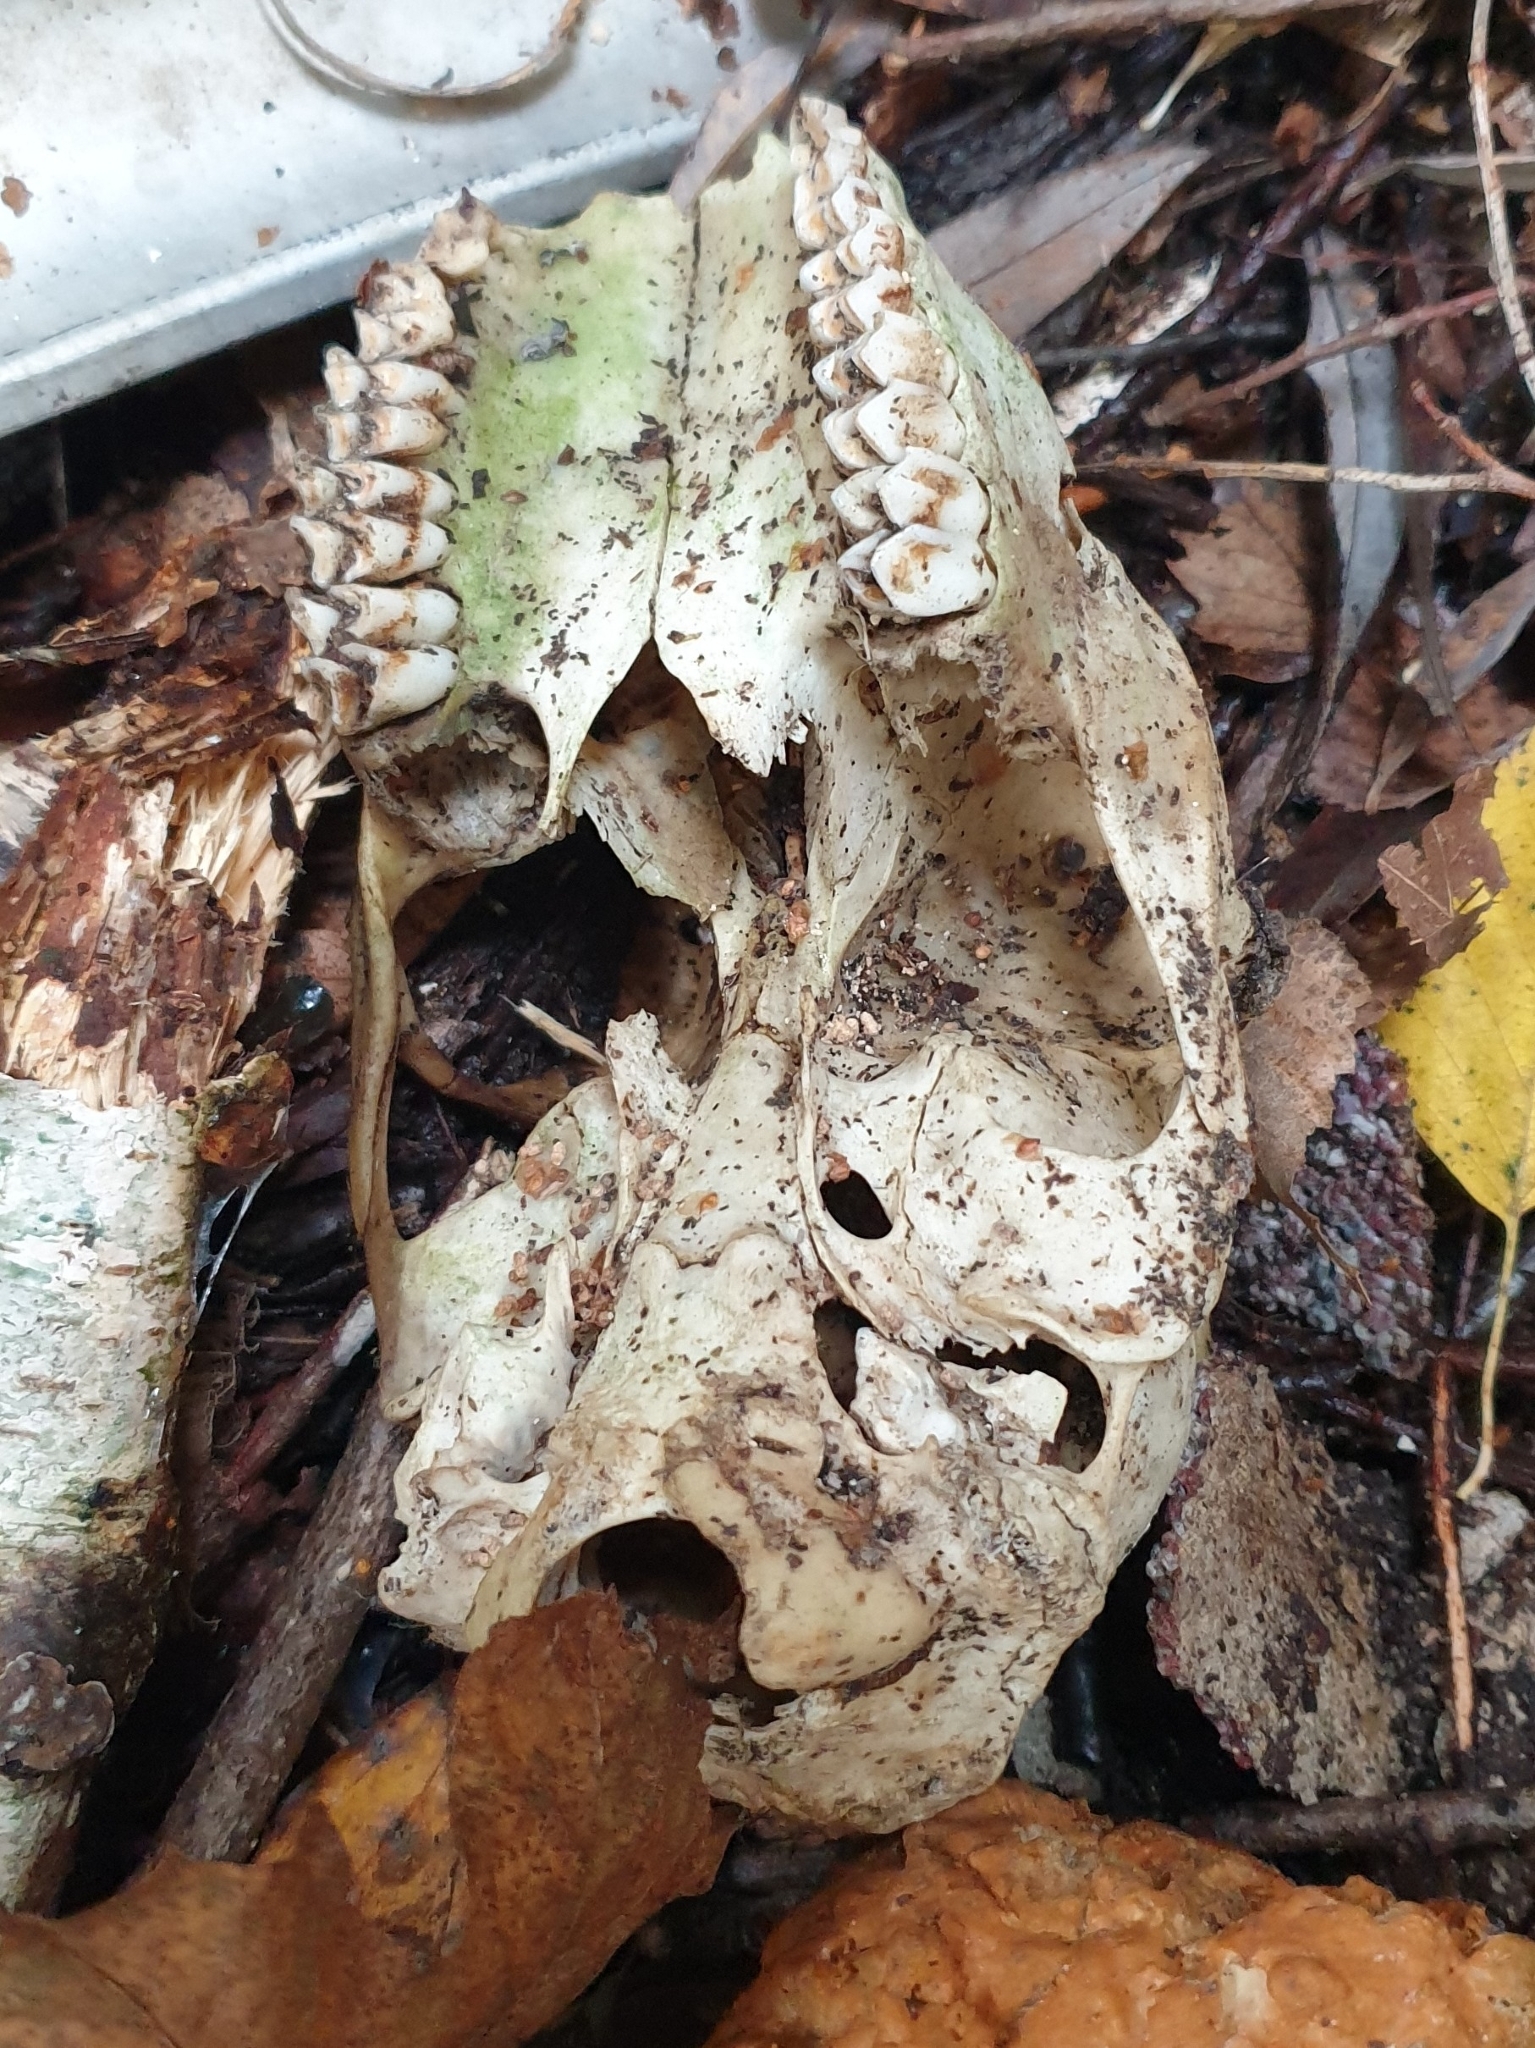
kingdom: Animalia
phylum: Chordata
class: Mammalia
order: Artiodactyla
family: Cervidae
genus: Capreolus
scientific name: Capreolus capreolus
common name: Western roe deer
